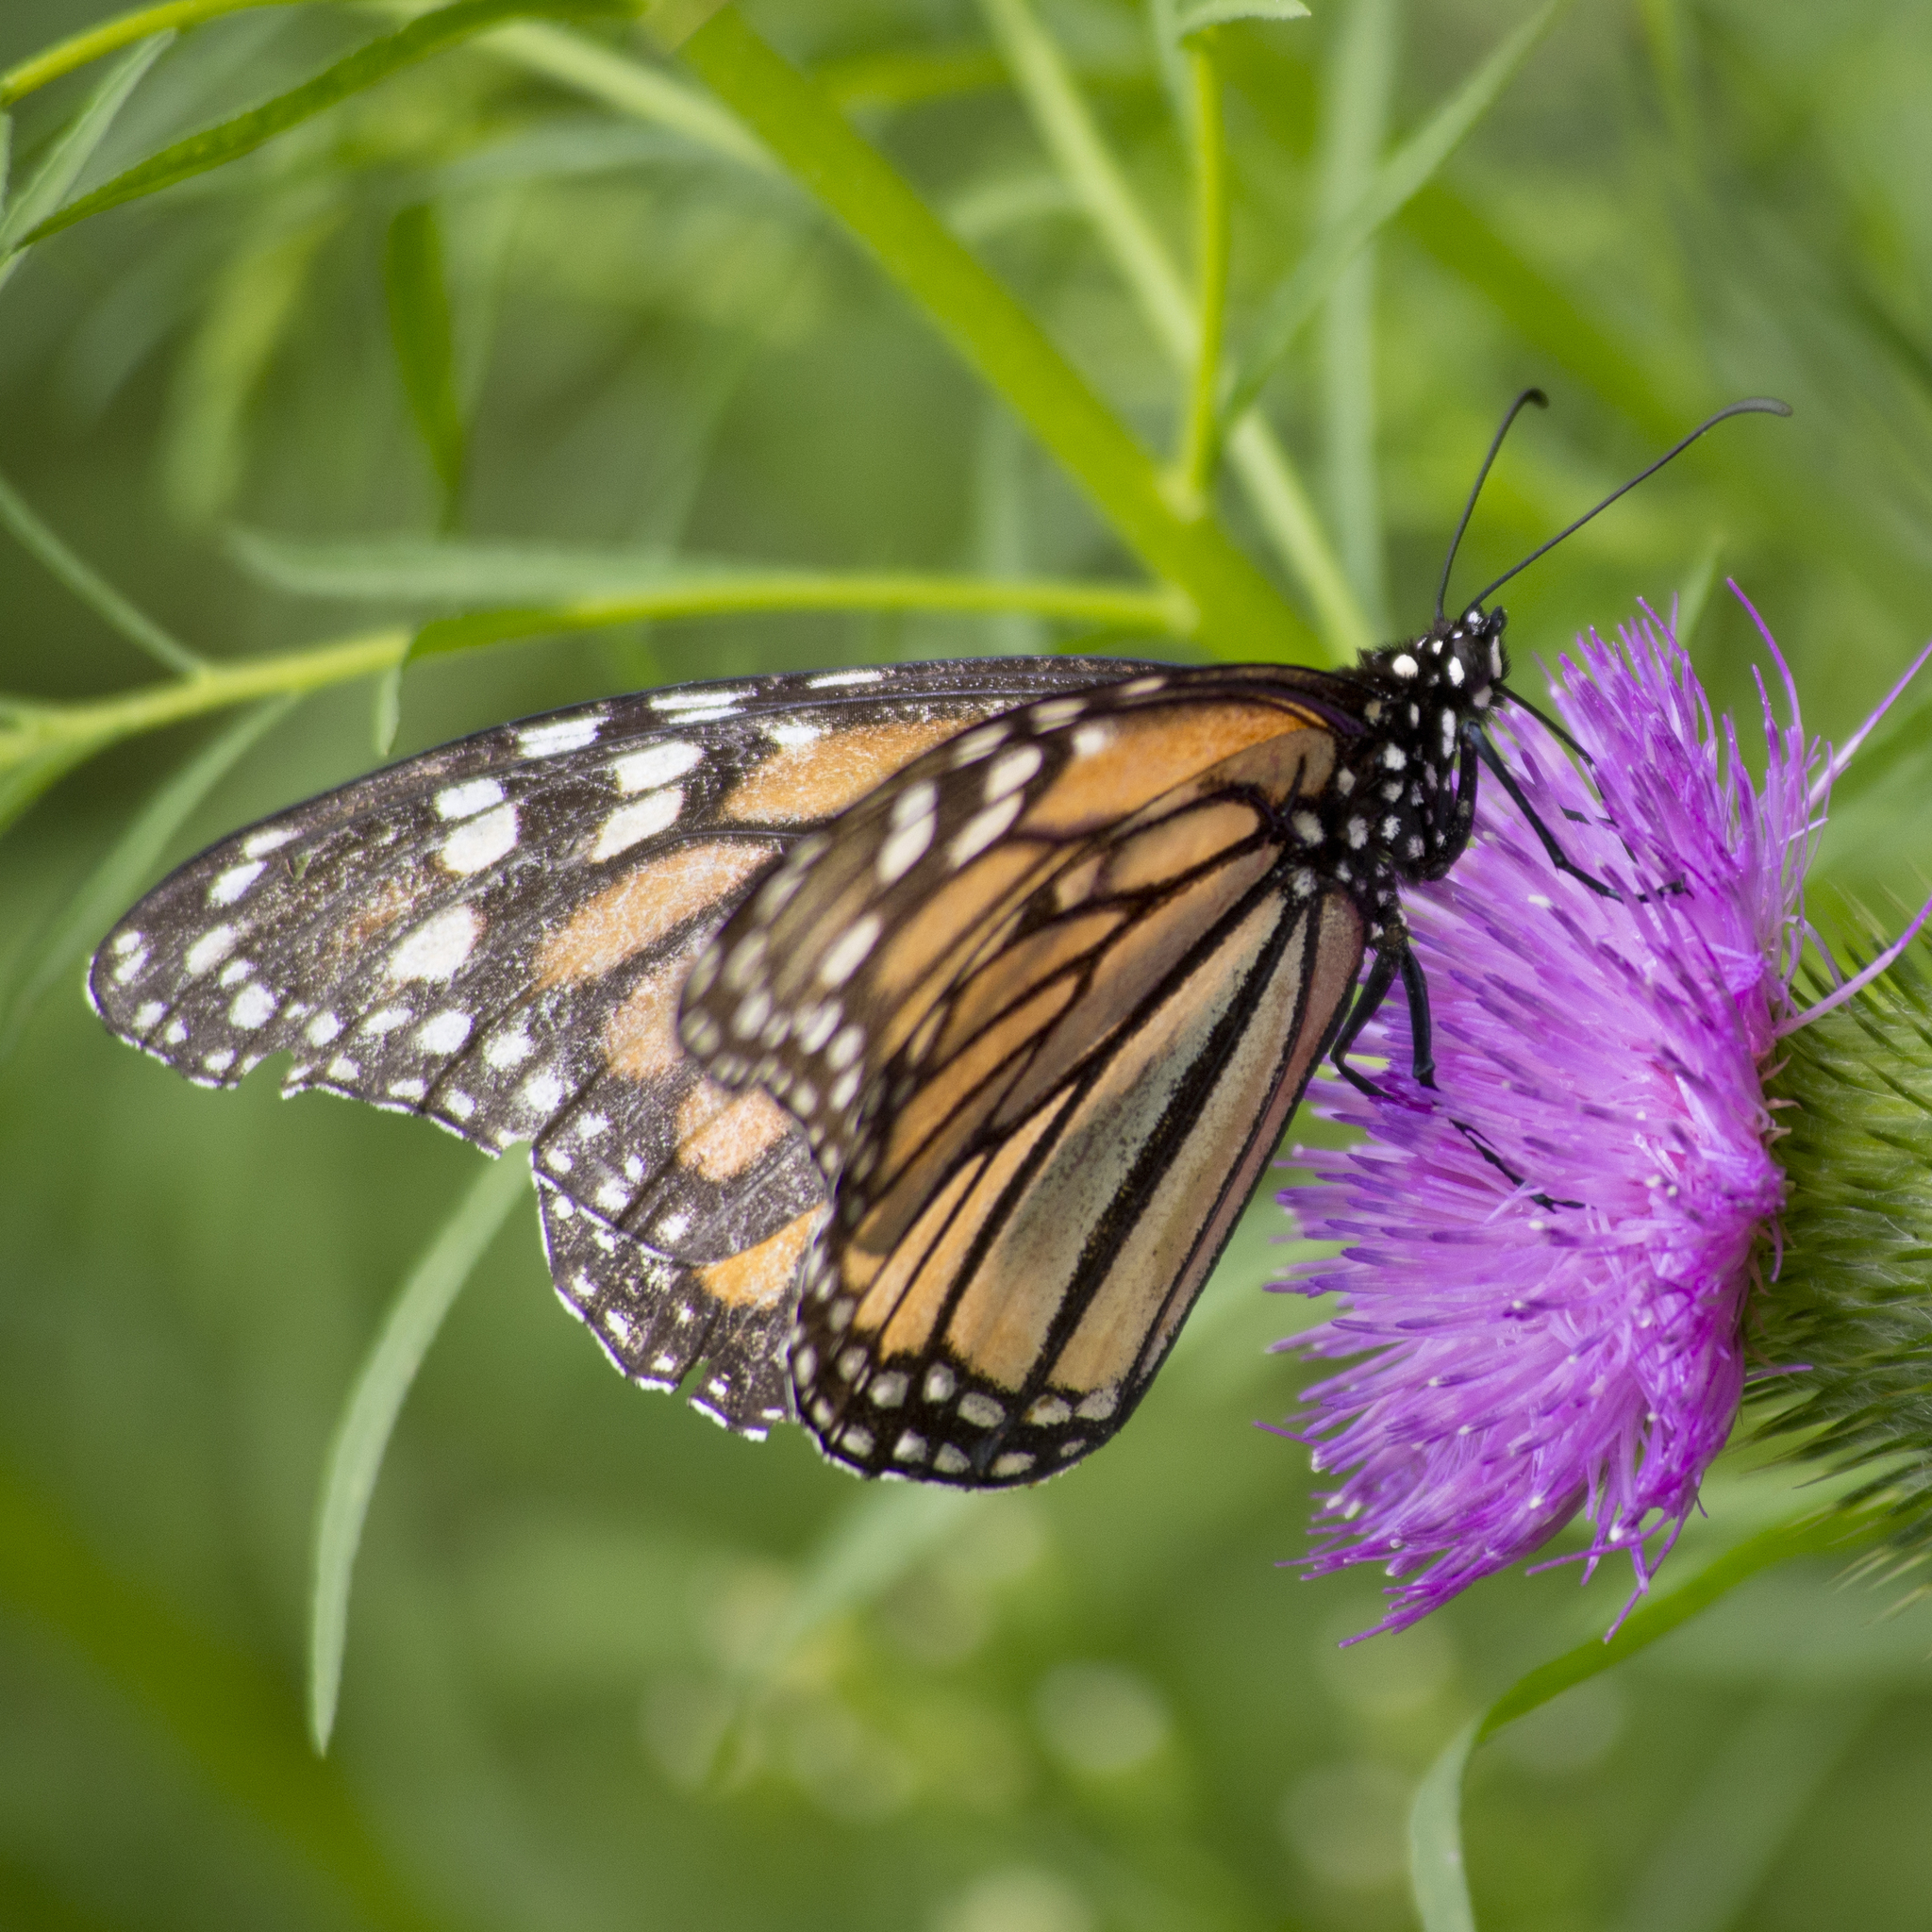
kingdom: Animalia
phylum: Arthropoda
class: Insecta
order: Lepidoptera
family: Nymphalidae
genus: Danaus
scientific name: Danaus plexippus
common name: Monarch
